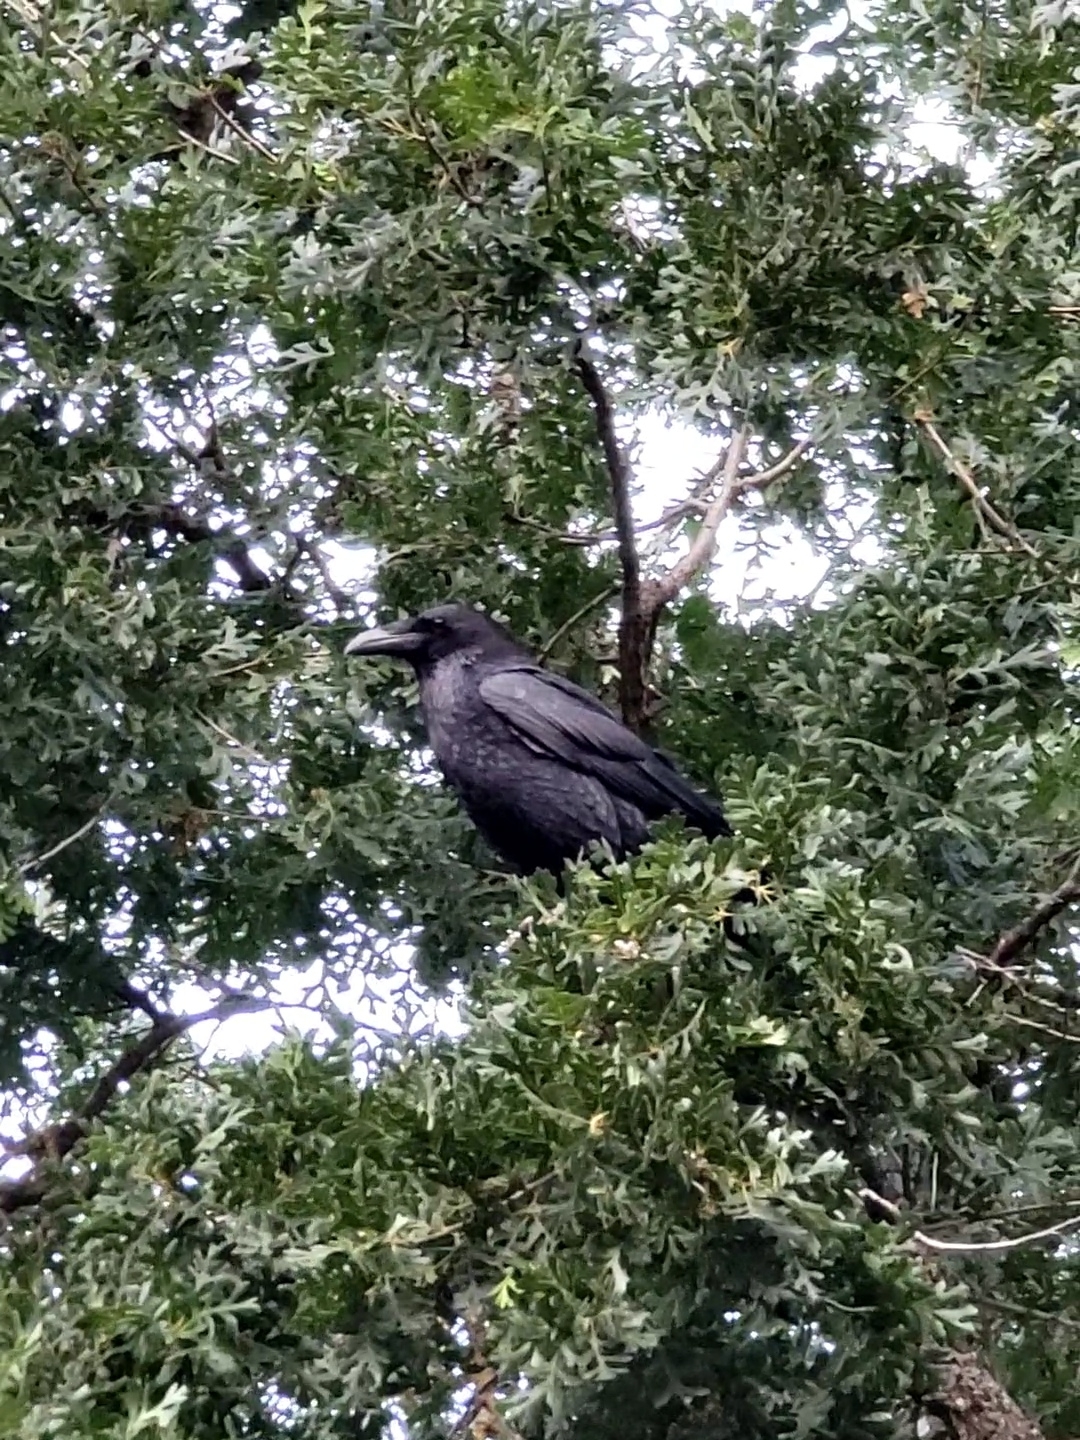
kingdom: Animalia
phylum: Chordata
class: Aves
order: Passeriformes
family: Corvidae
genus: Corvus
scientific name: Corvus corax
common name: Common raven
